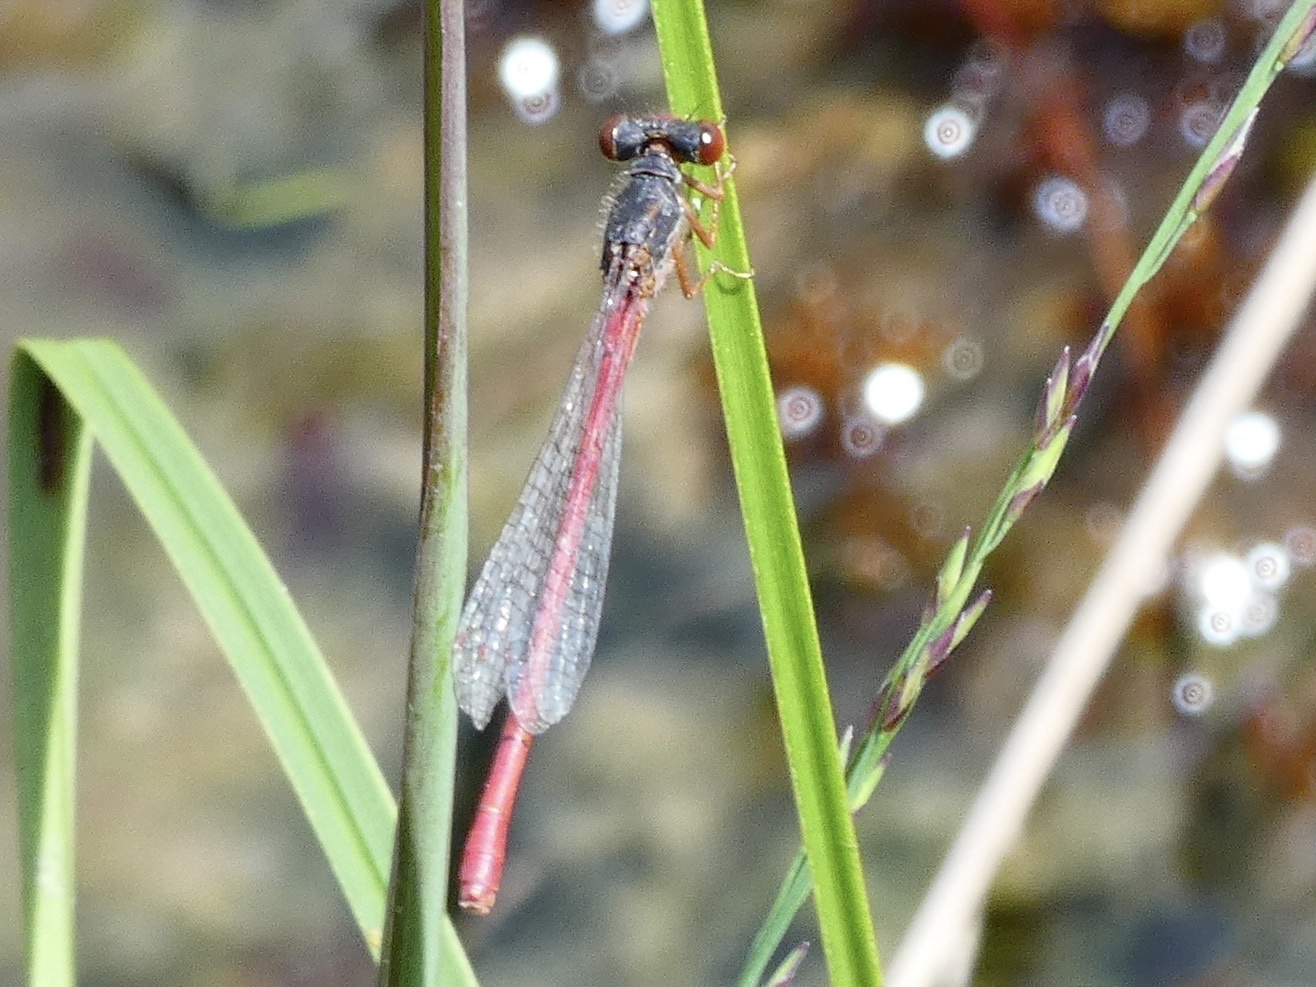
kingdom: Animalia
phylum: Arthropoda
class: Insecta
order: Odonata
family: Coenagrionidae
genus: Ceriagrion
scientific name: Ceriagrion tenellum
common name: Small red damselfly
